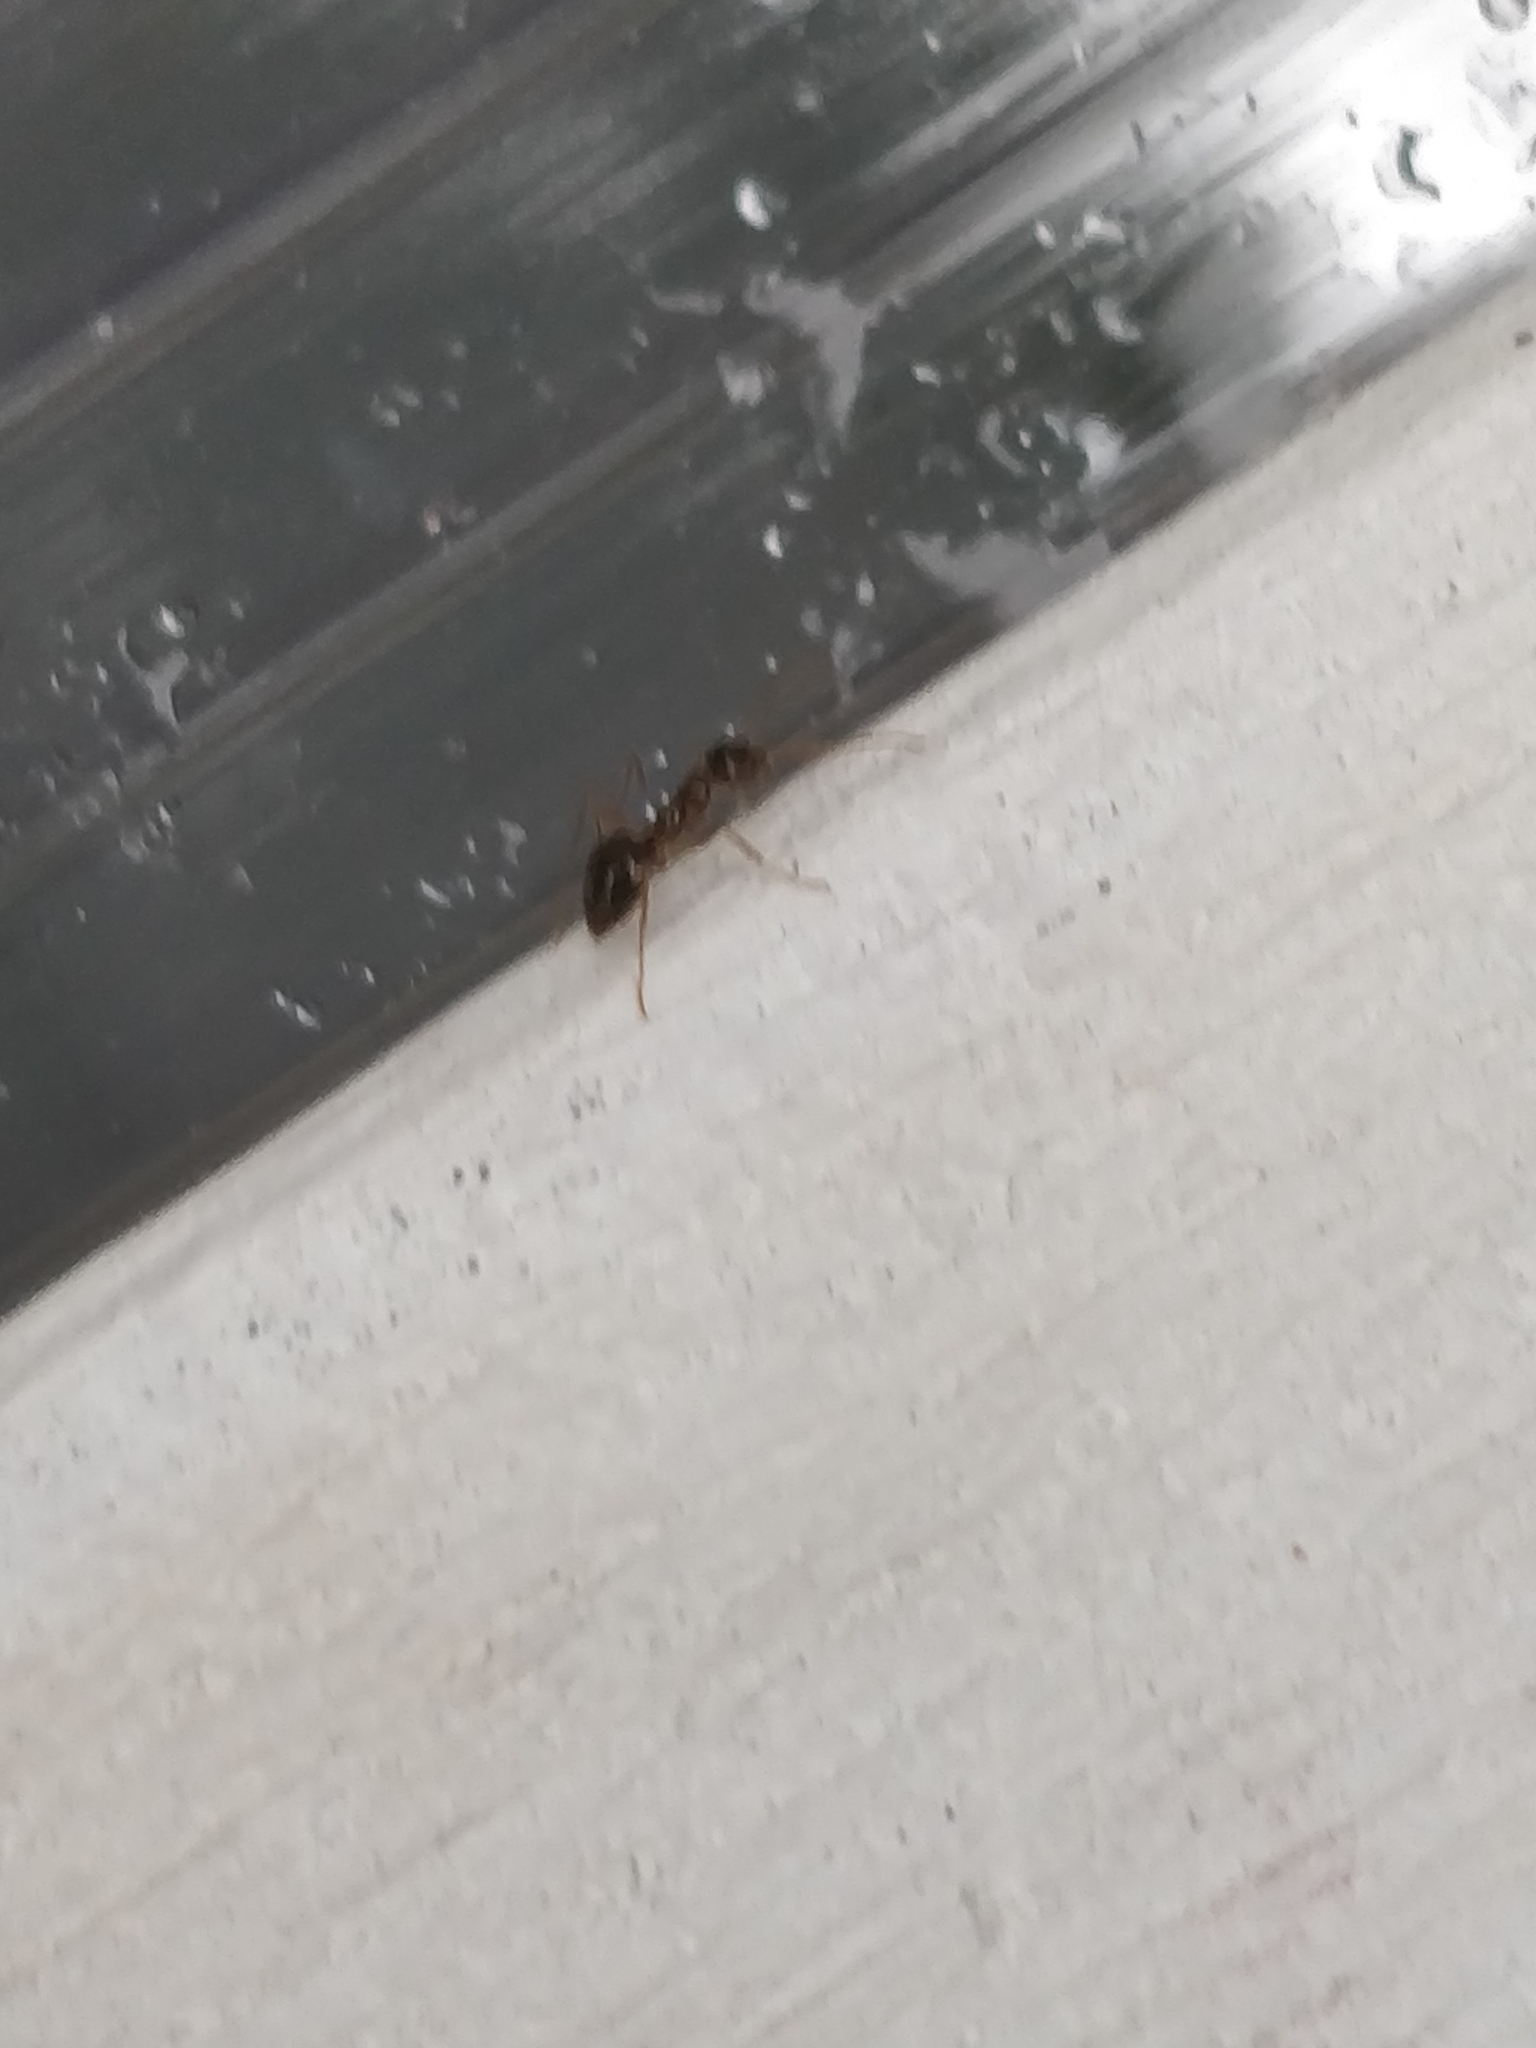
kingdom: Animalia
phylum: Arthropoda
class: Insecta
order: Hymenoptera
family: Formicidae
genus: Prenolepis
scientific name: Prenolepis imparis
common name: Small honey ant
